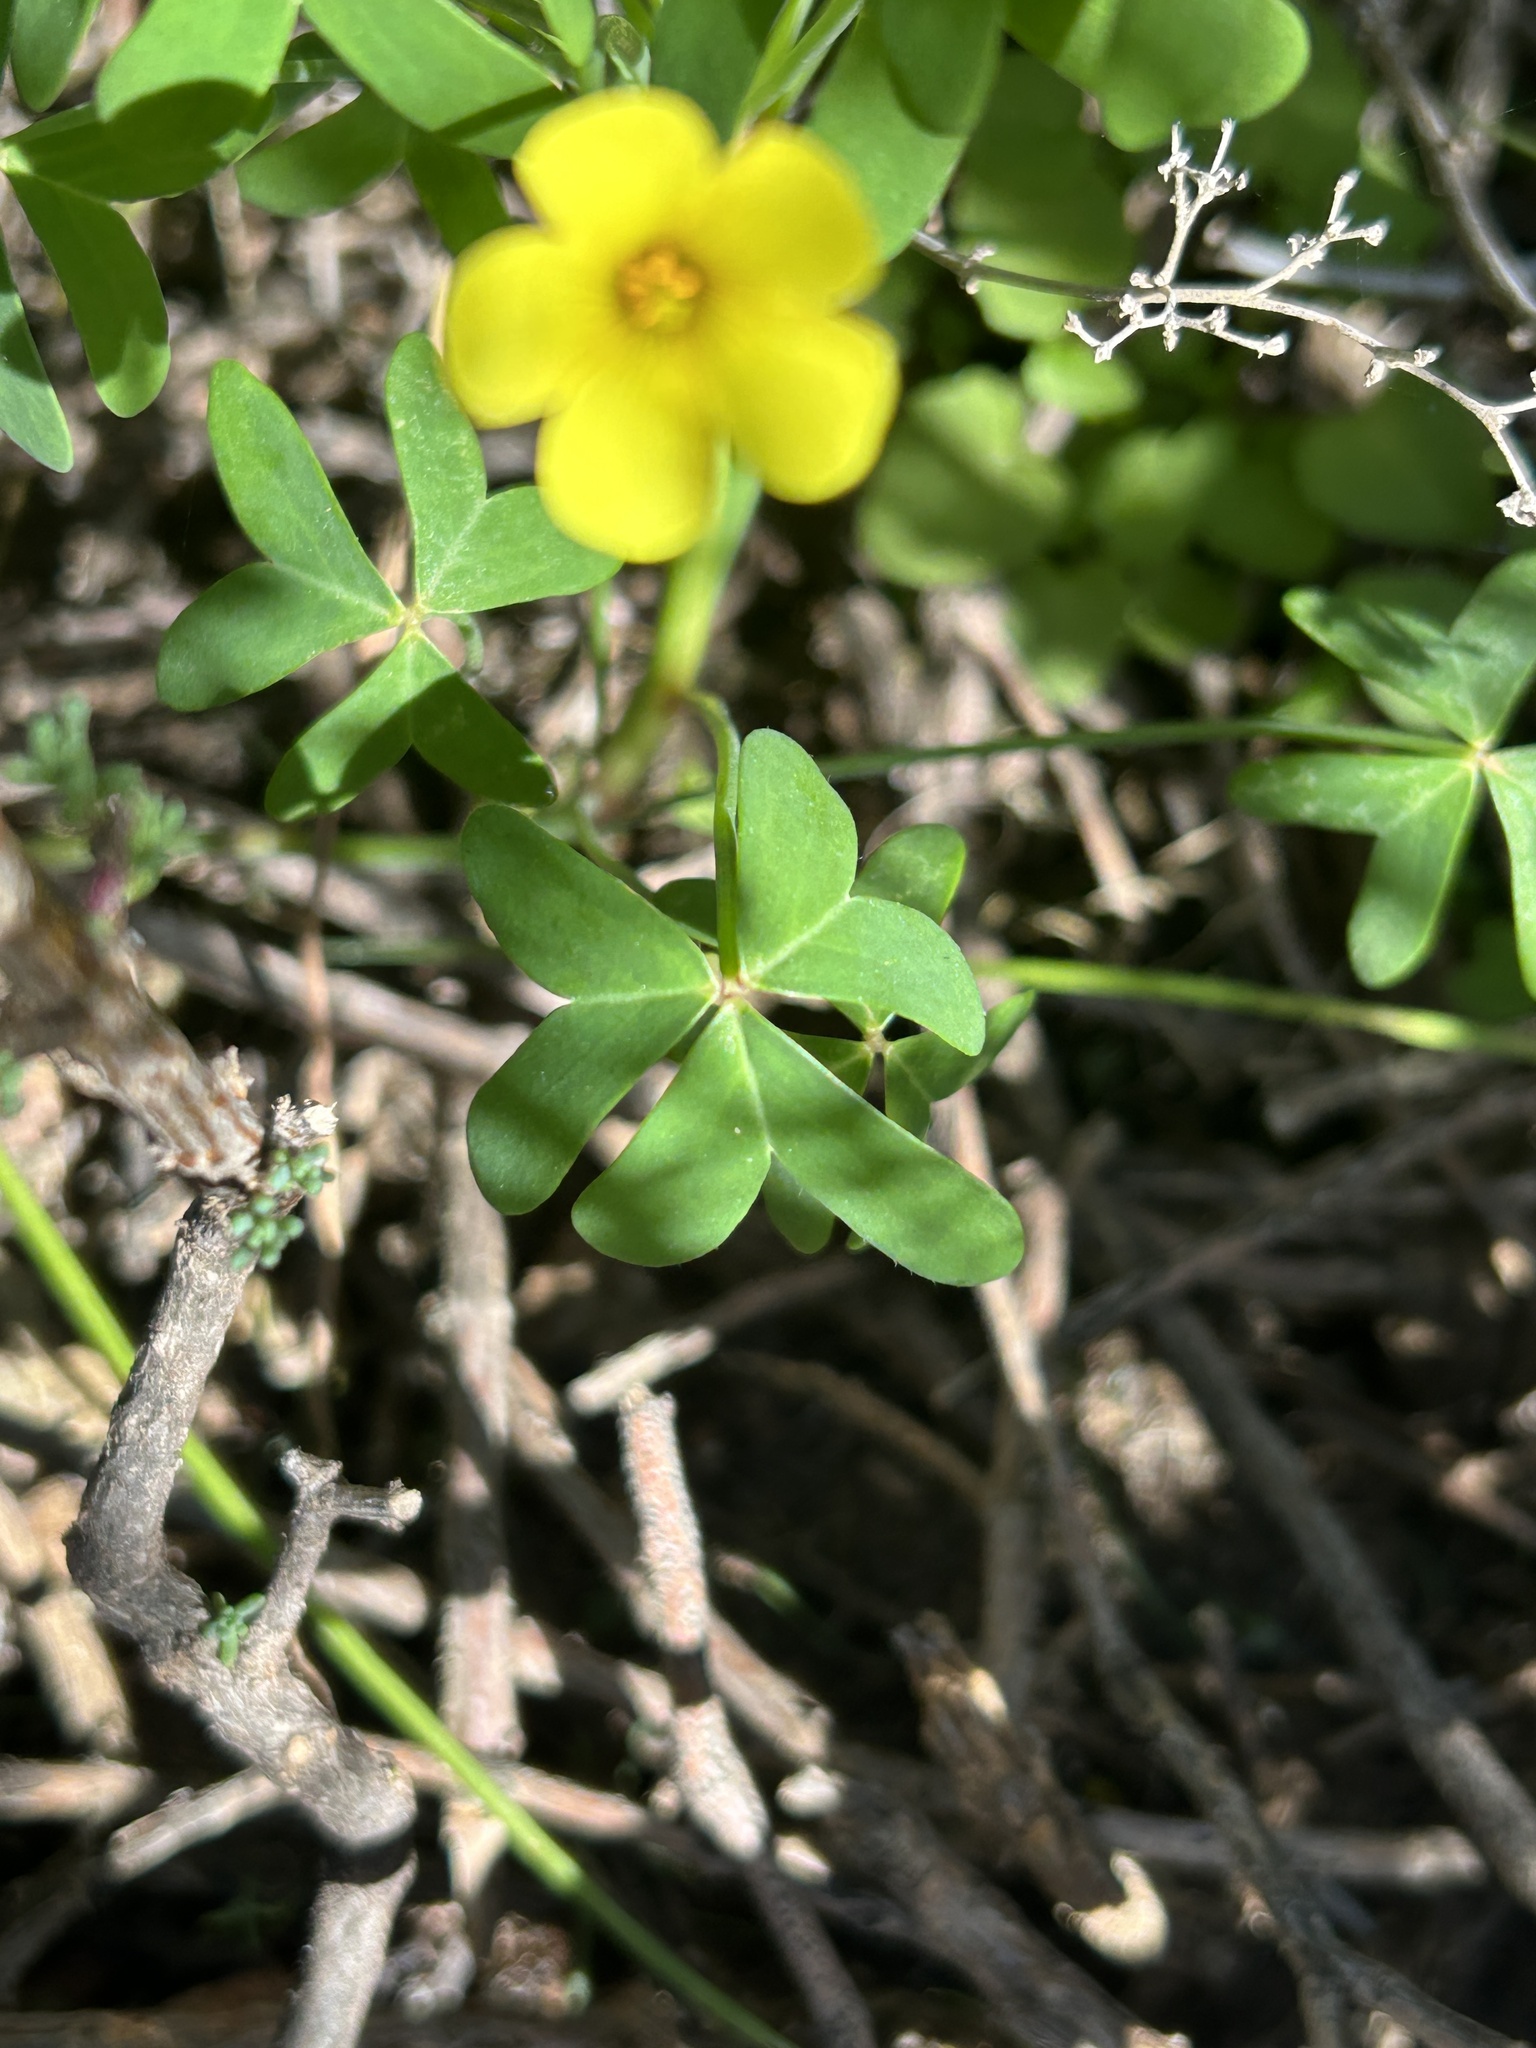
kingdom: Plantae
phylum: Tracheophyta
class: Magnoliopsida
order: Oxalidales
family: Oxalidaceae
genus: Oxalis
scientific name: Oxalis pes-caprae
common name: Bermuda-buttercup
